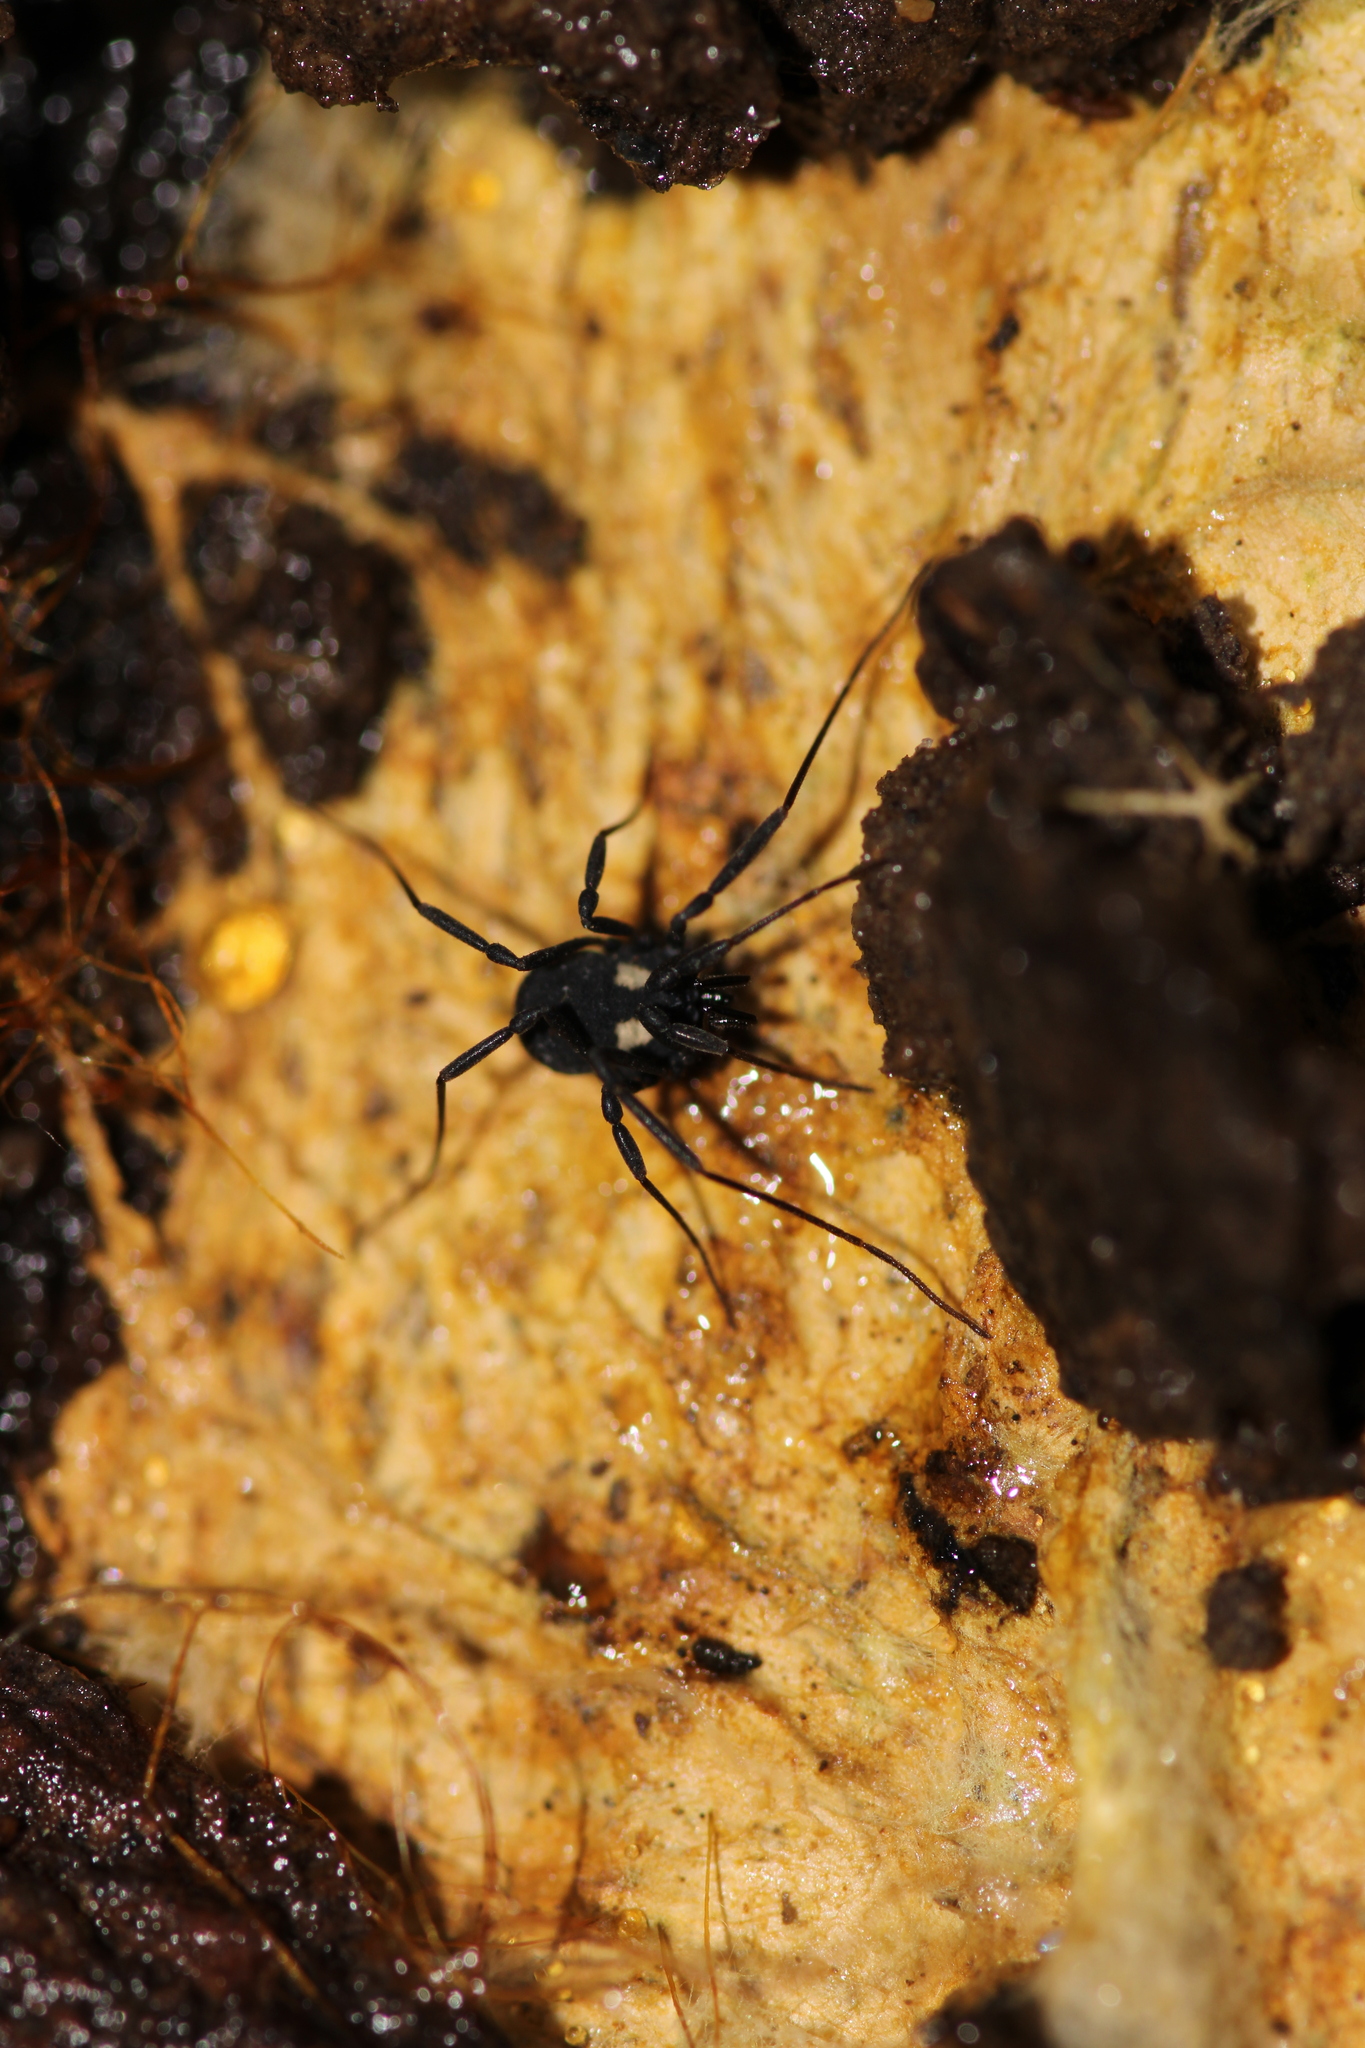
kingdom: Animalia
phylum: Arthropoda
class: Arachnida
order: Opiliones
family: Nemastomatidae
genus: Nemastoma
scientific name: Nemastoma lugubre
